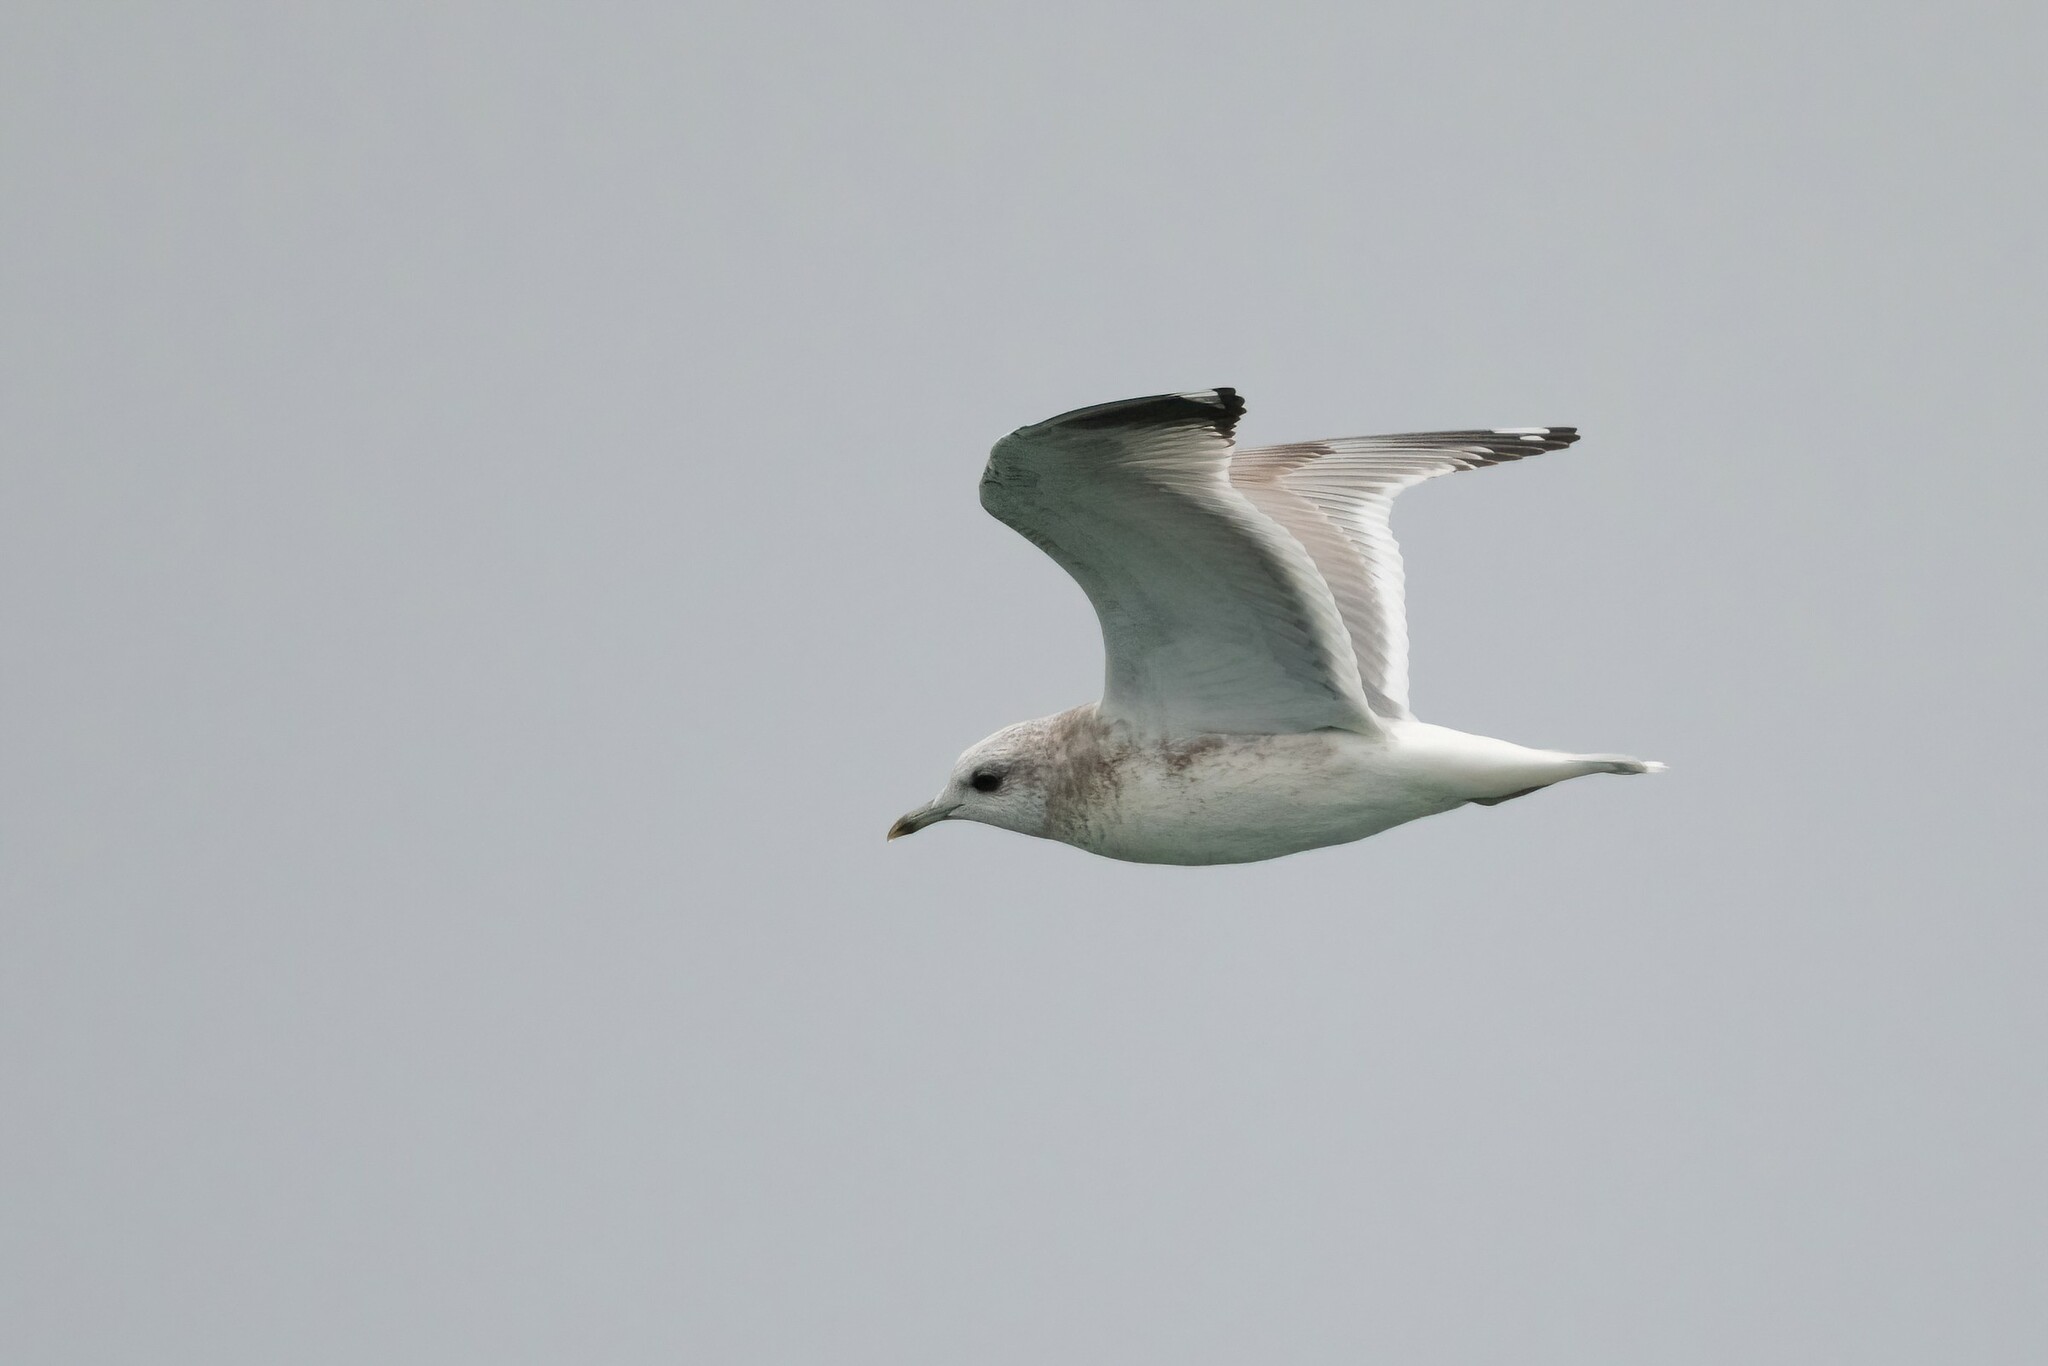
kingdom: Animalia
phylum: Chordata
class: Aves
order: Charadriiformes
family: Laridae
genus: Larus
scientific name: Larus brachyrhynchus
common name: Short-billed gull
